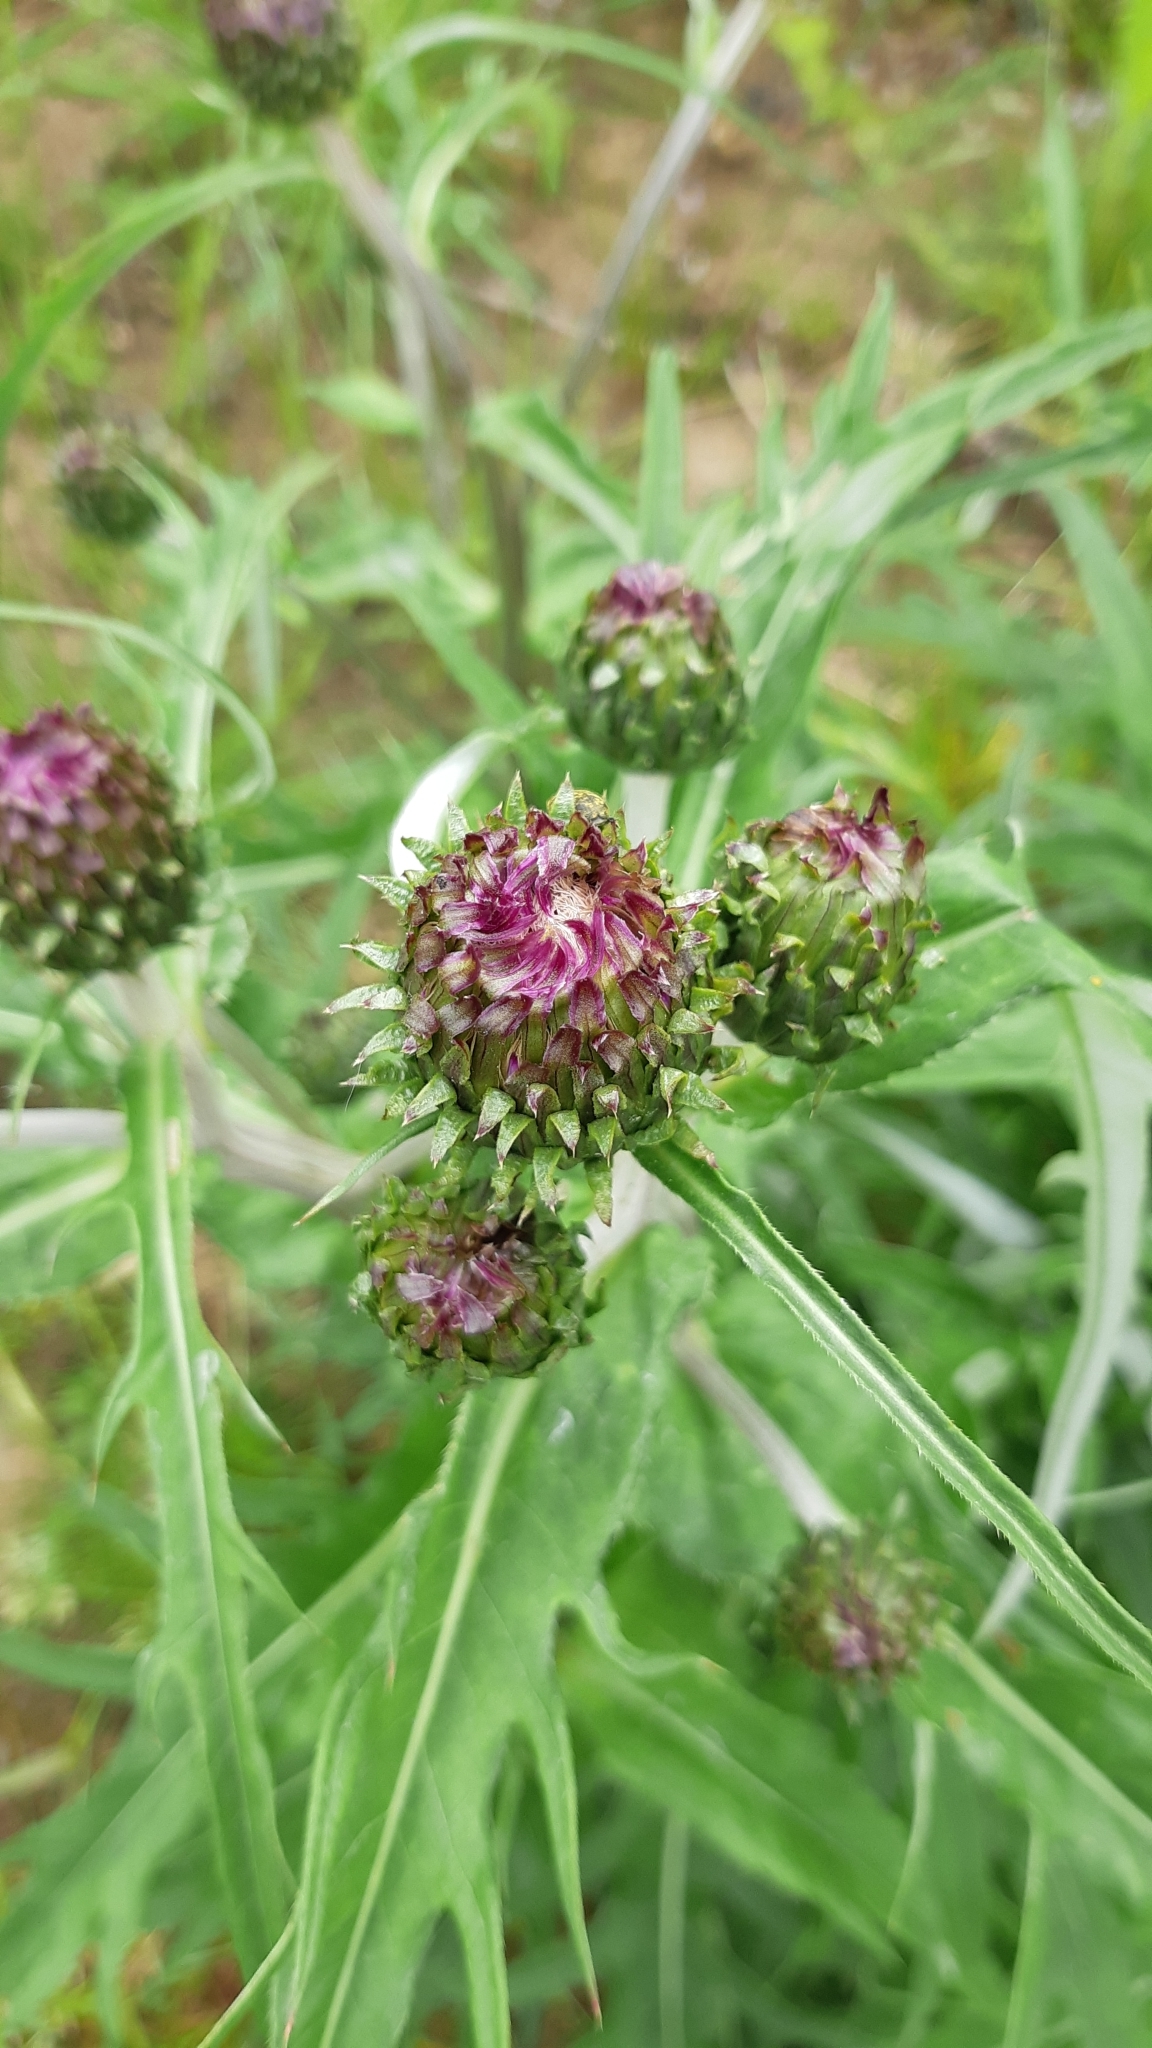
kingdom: Plantae
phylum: Tracheophyta
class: Magnoliopsida
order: Asterales
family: Asteraceae
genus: Cirsium
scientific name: Cirsium heterophyllum
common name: Melancholy thistle
